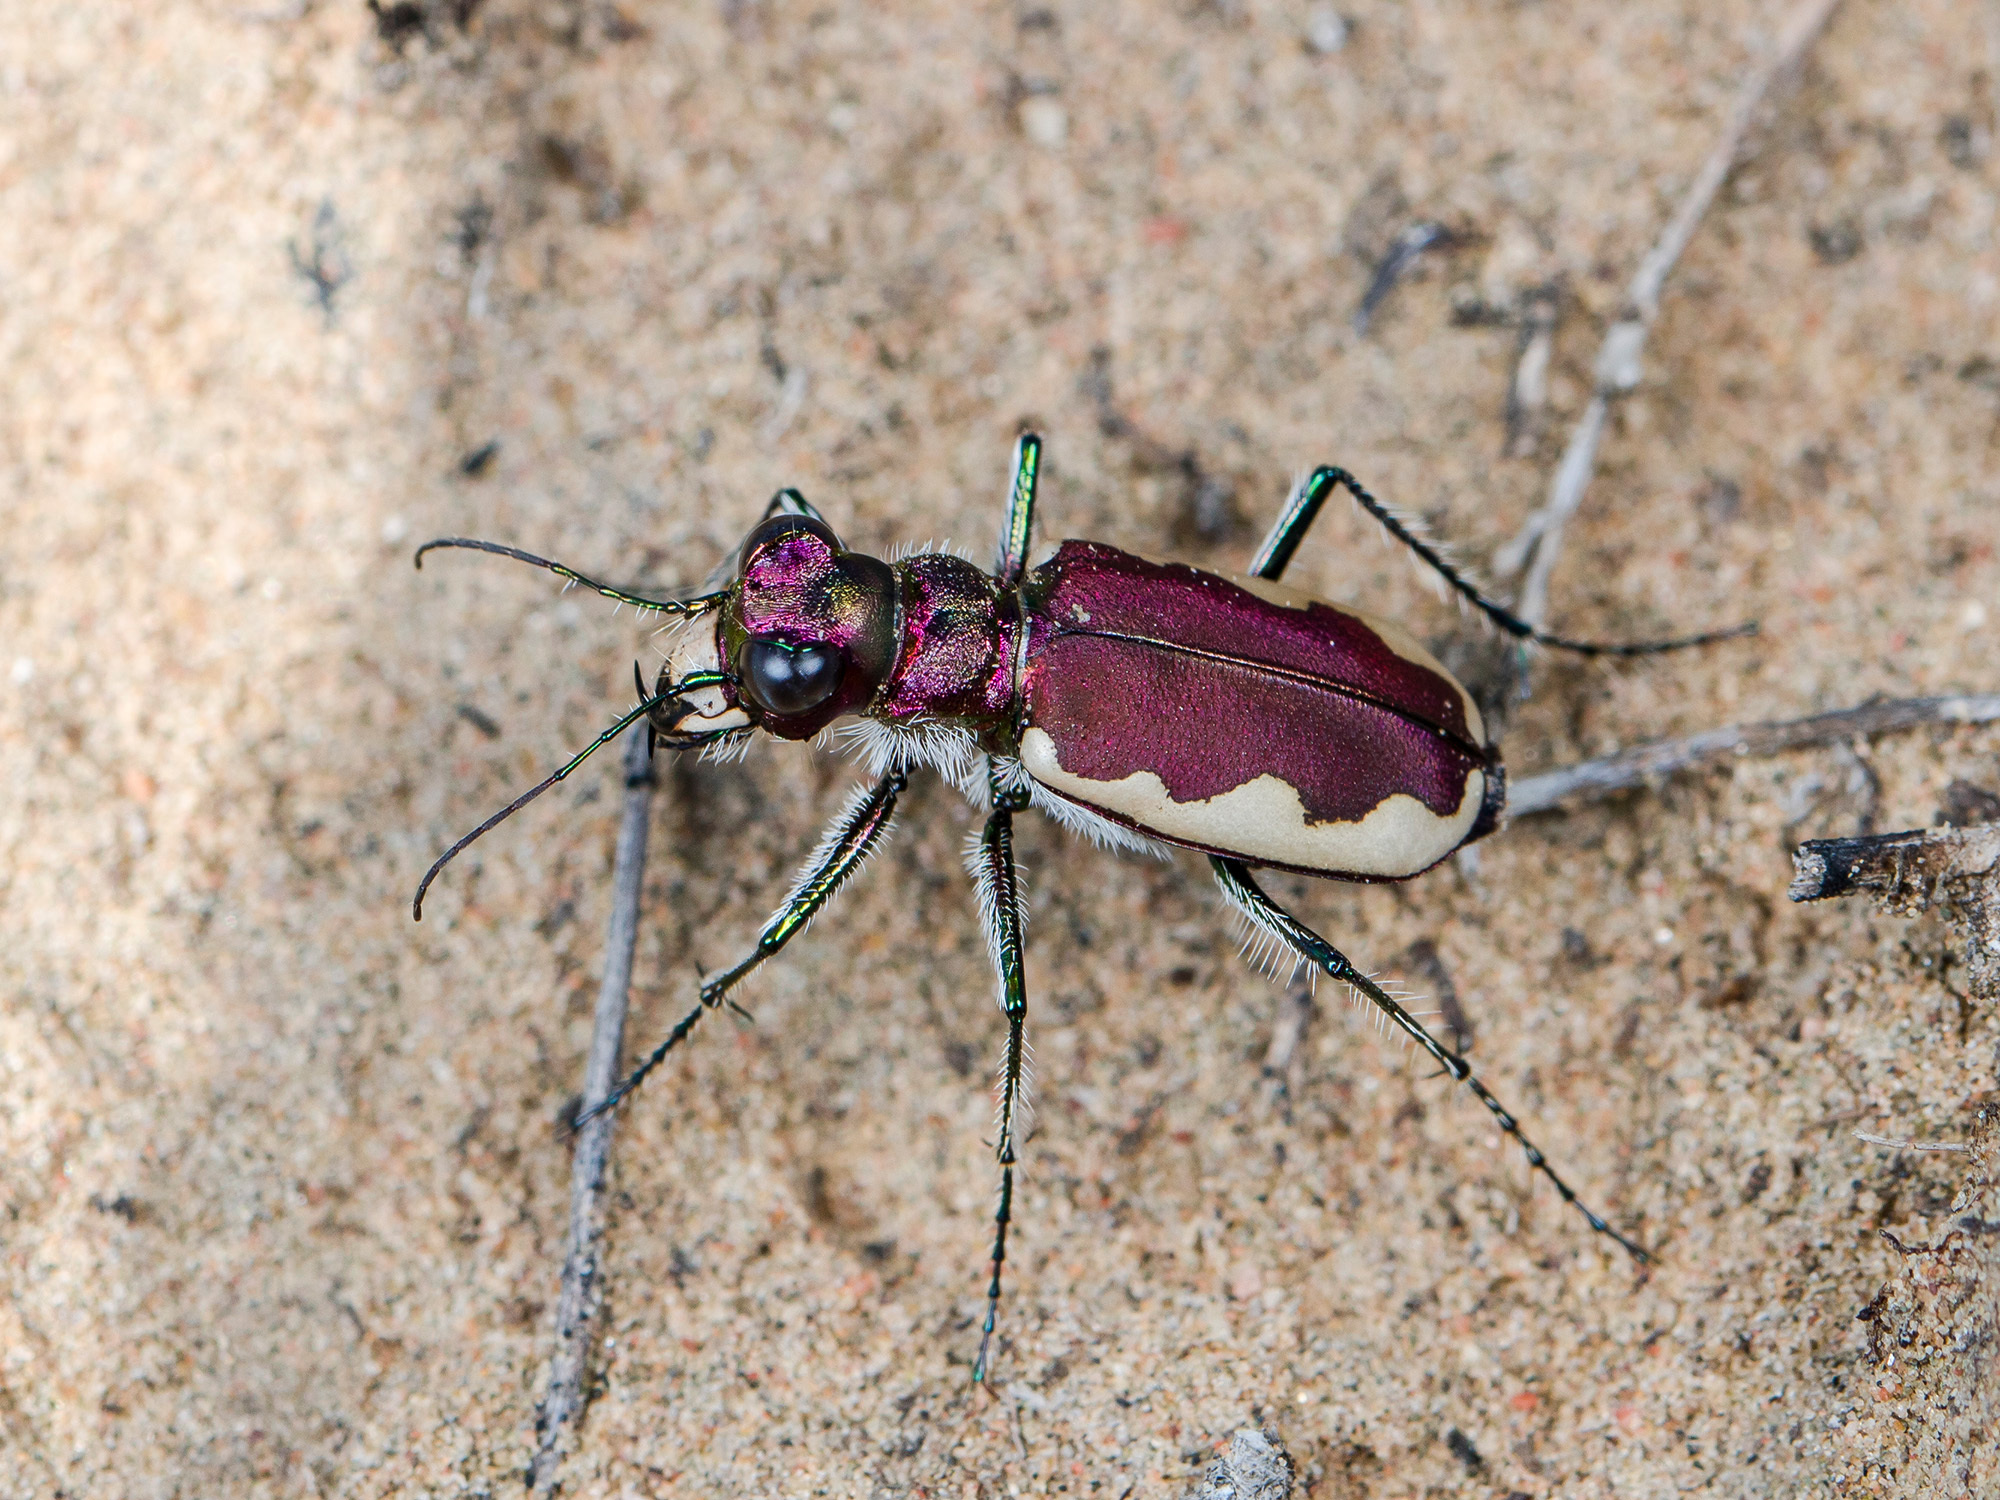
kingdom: Animalia
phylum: Arthropoda
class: Insecta
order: Coleoptera
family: Carabidae
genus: Cicindela
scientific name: Cicindela lacteola
